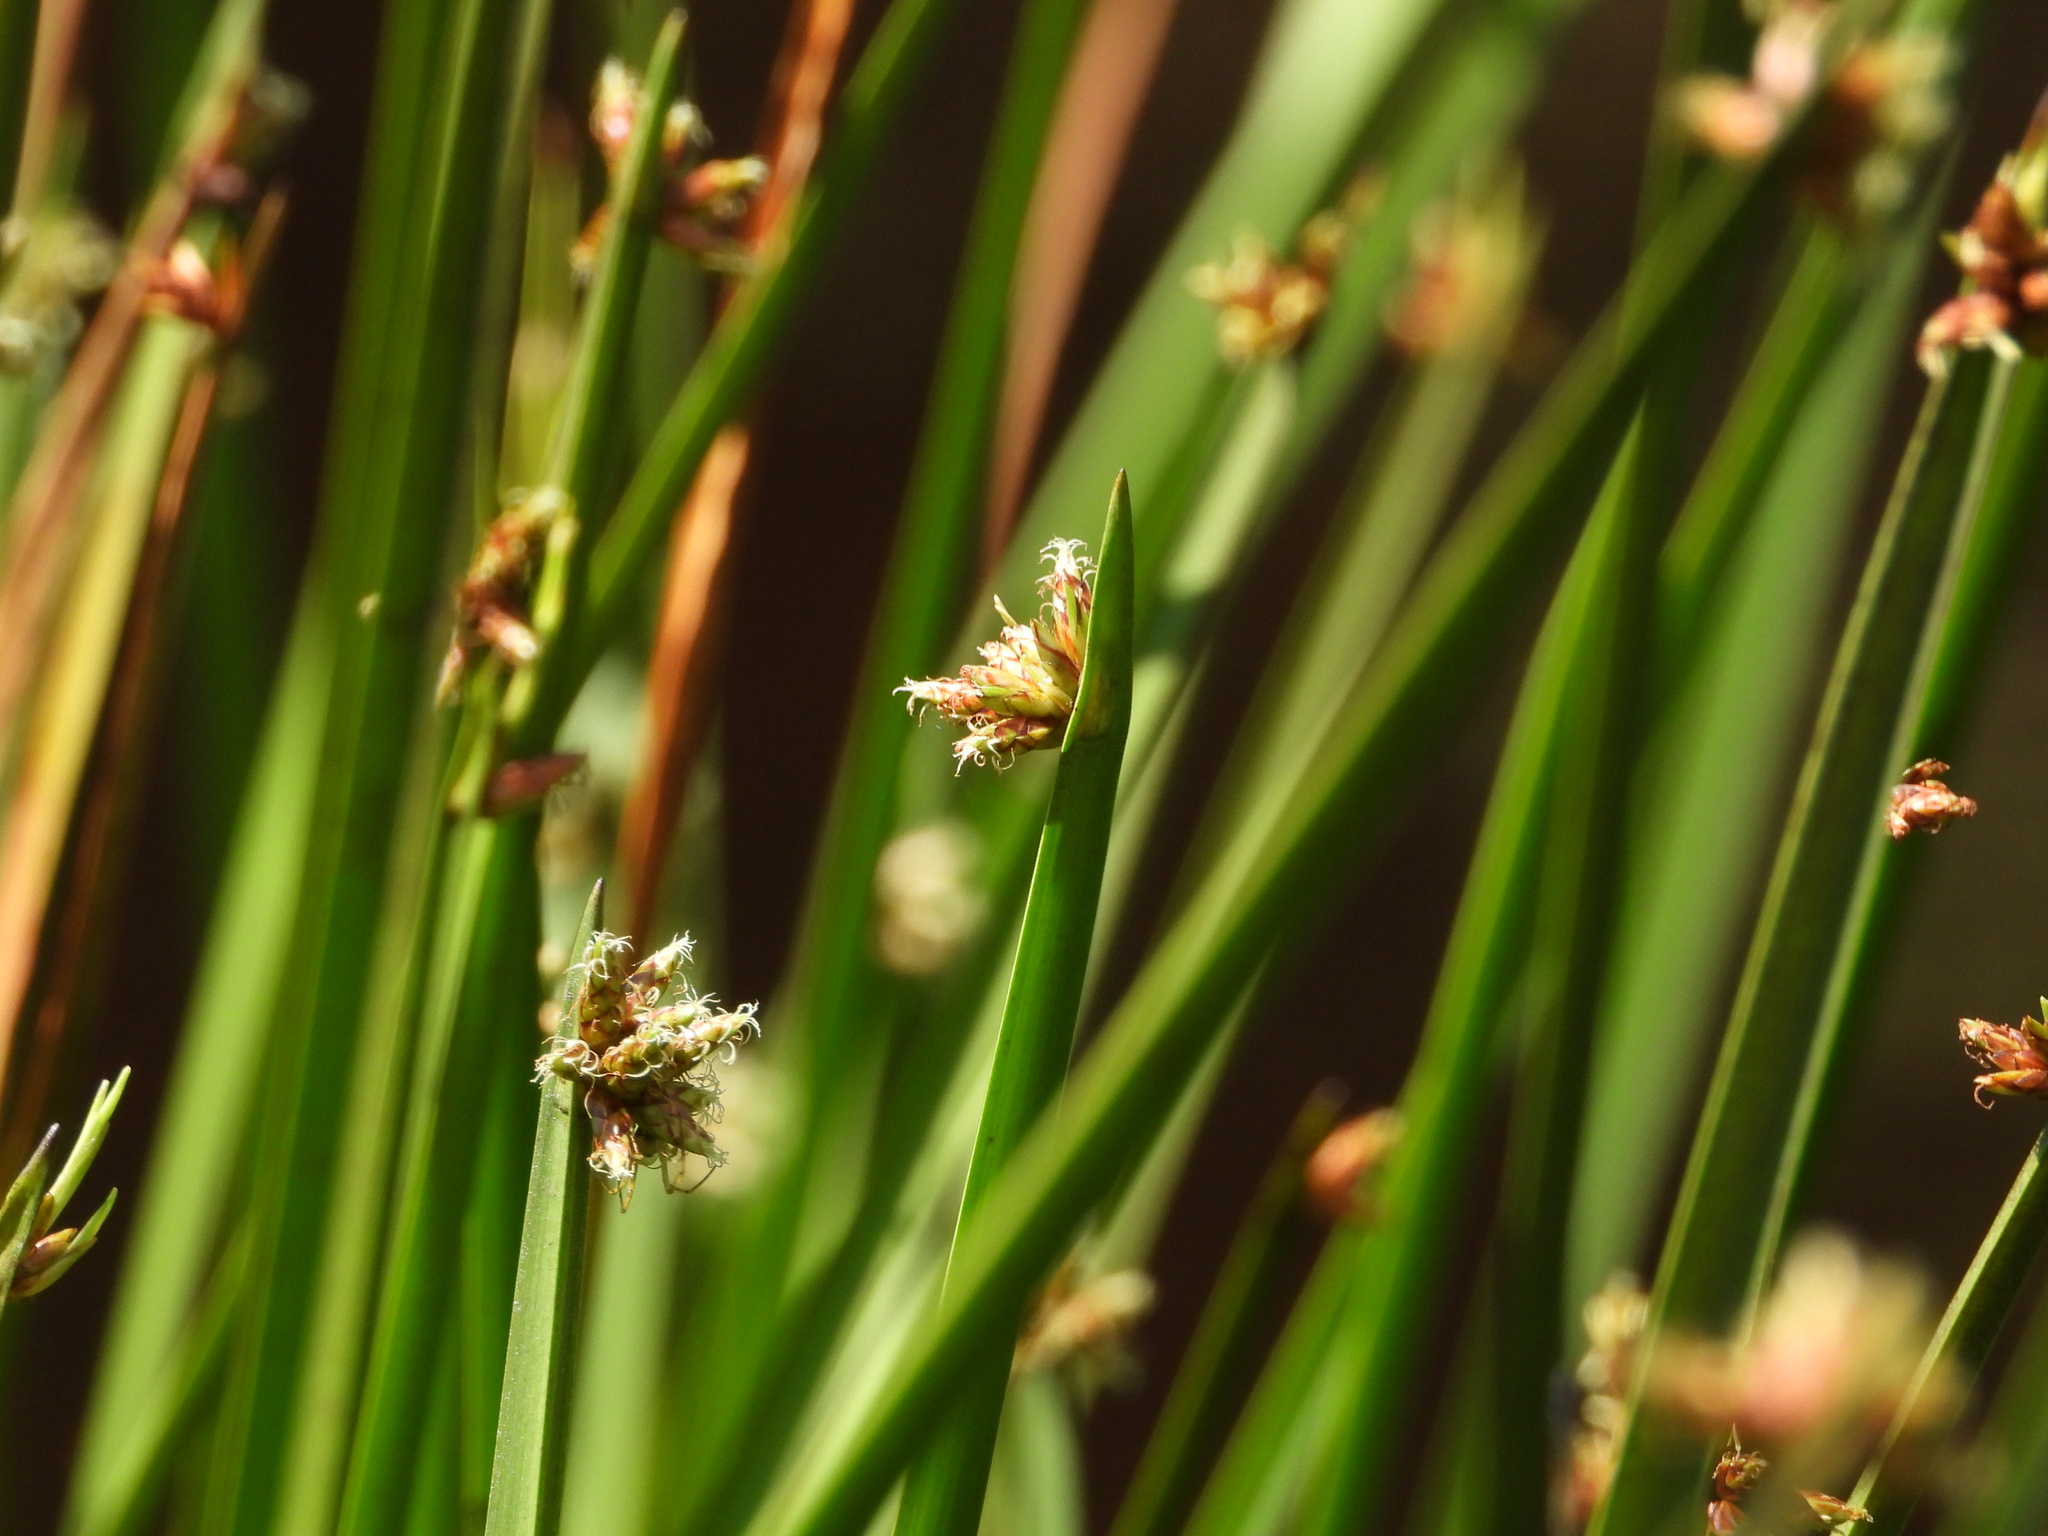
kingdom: Plantae
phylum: Tracheophyta
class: Liliopsida
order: Poales
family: Cyperaceae
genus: Schoenoplectiella
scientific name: Schoenoplectiella multiseta
